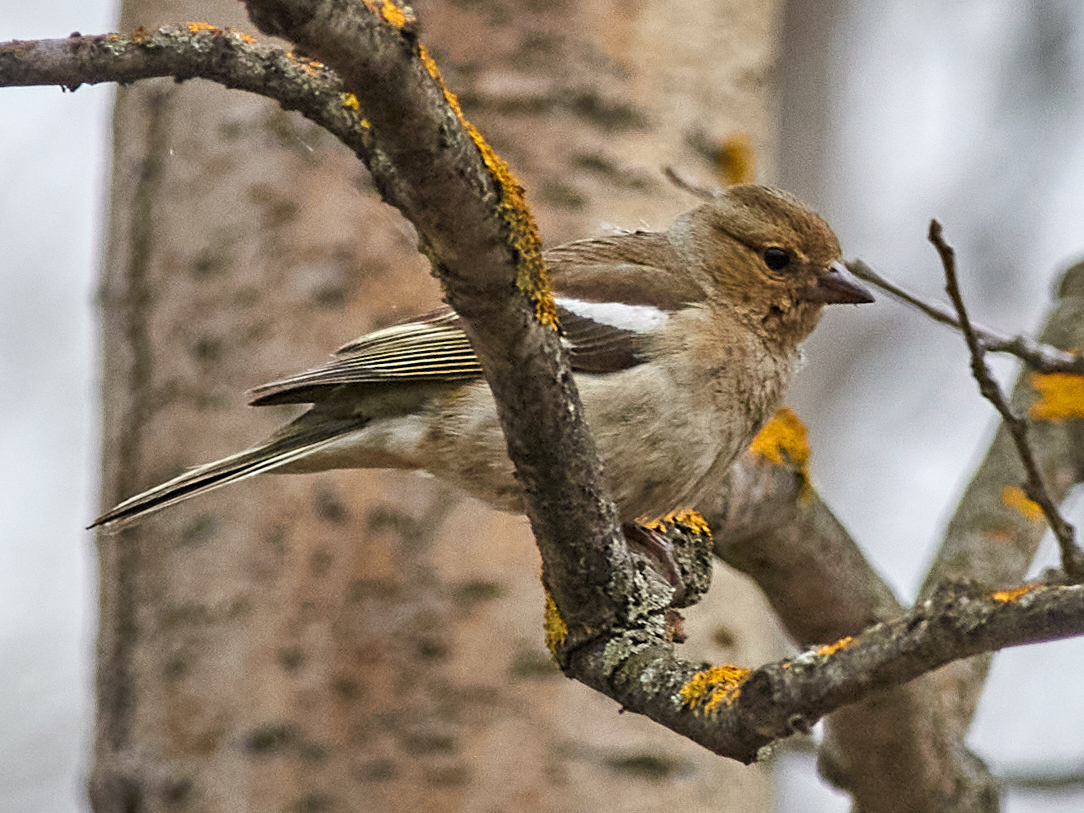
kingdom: Animalia
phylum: Chordata
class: Aves
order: Passeriformes
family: Fringillidae
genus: Fringilla
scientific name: Fringilla coelebs
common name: Common chaffinch
